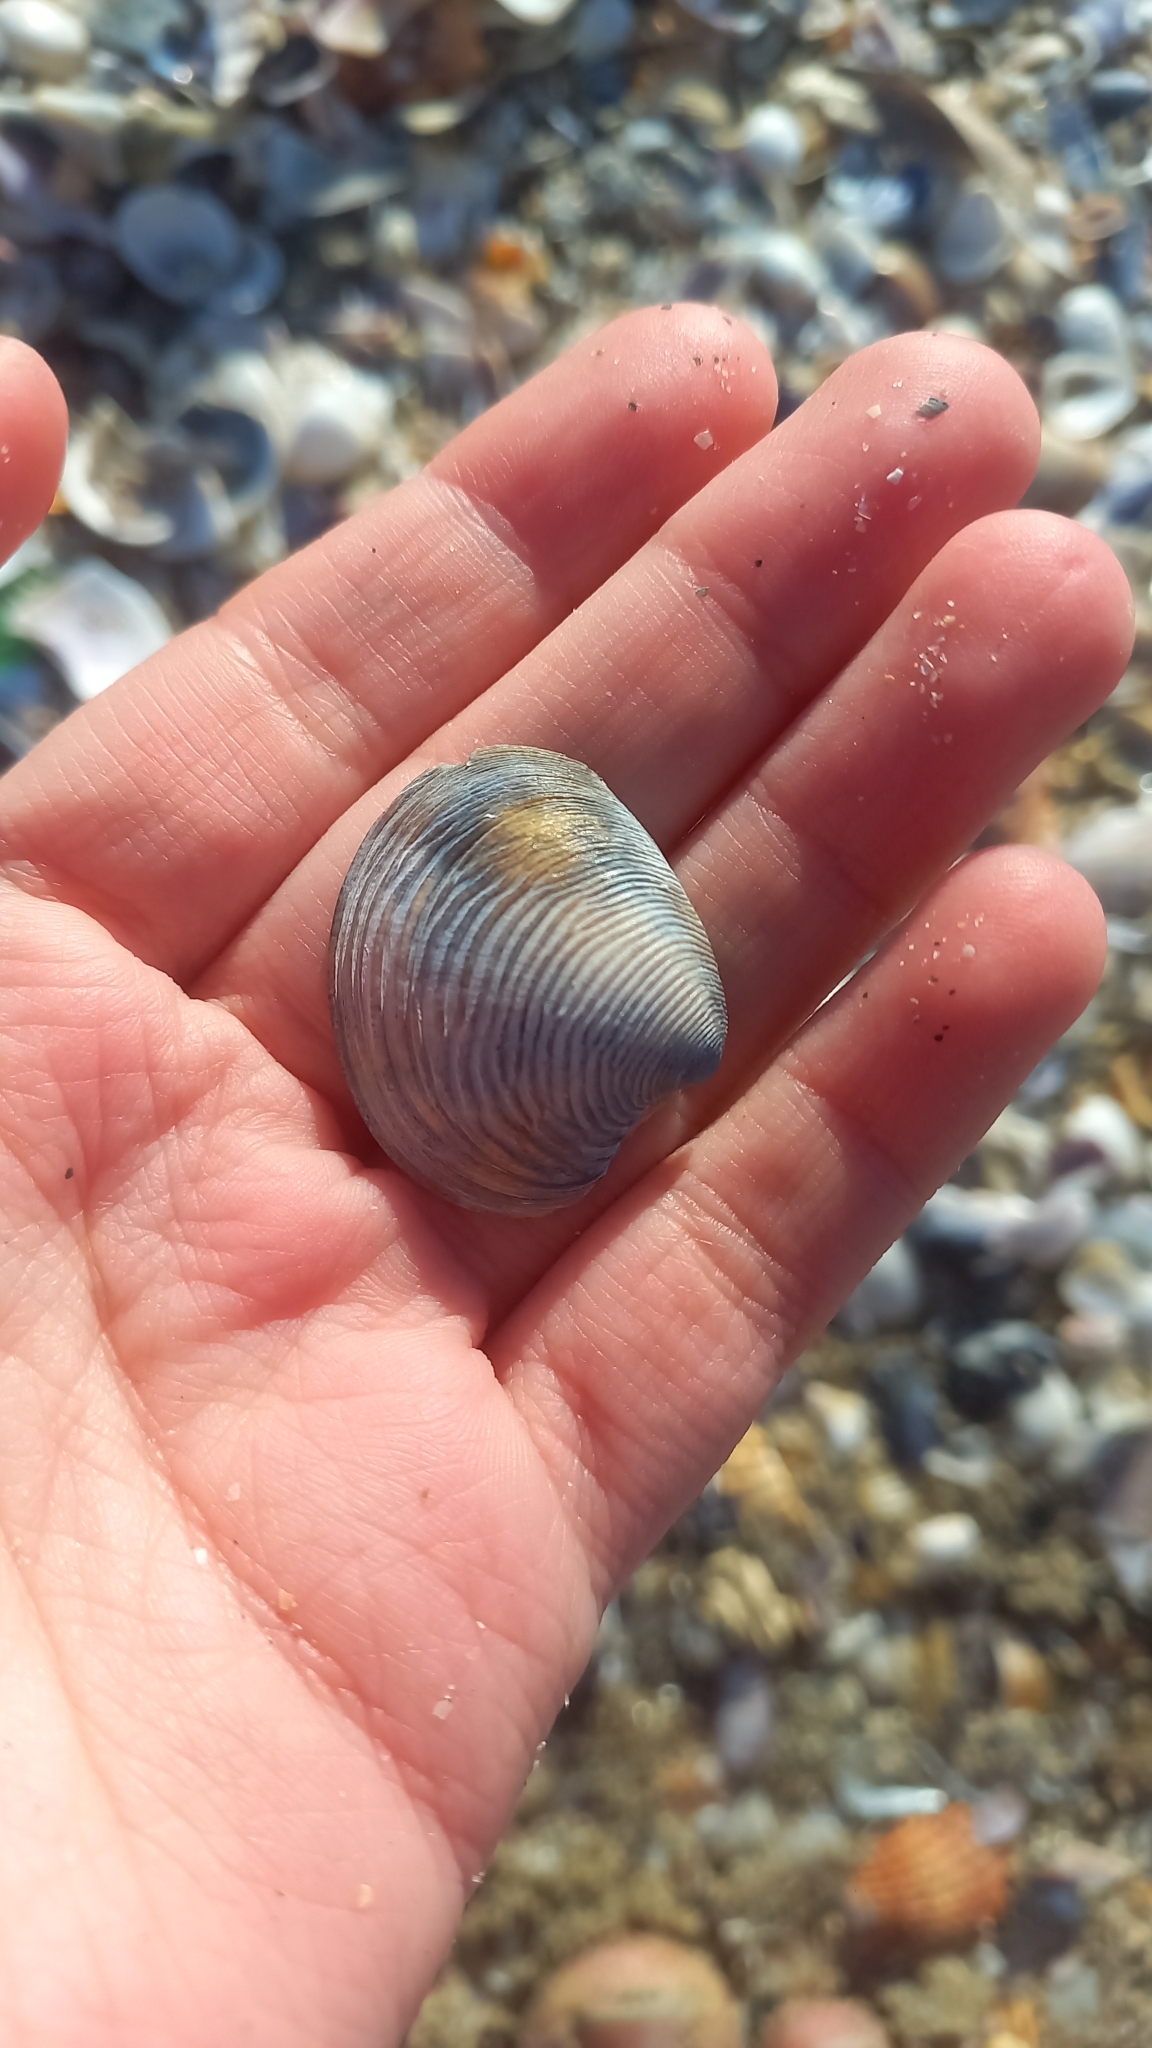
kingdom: Animalia
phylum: Mollusca
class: Bivalvia
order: Venerida
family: Veneridae
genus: Chamelea
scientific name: Chamelea gallina
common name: Chicken venus
